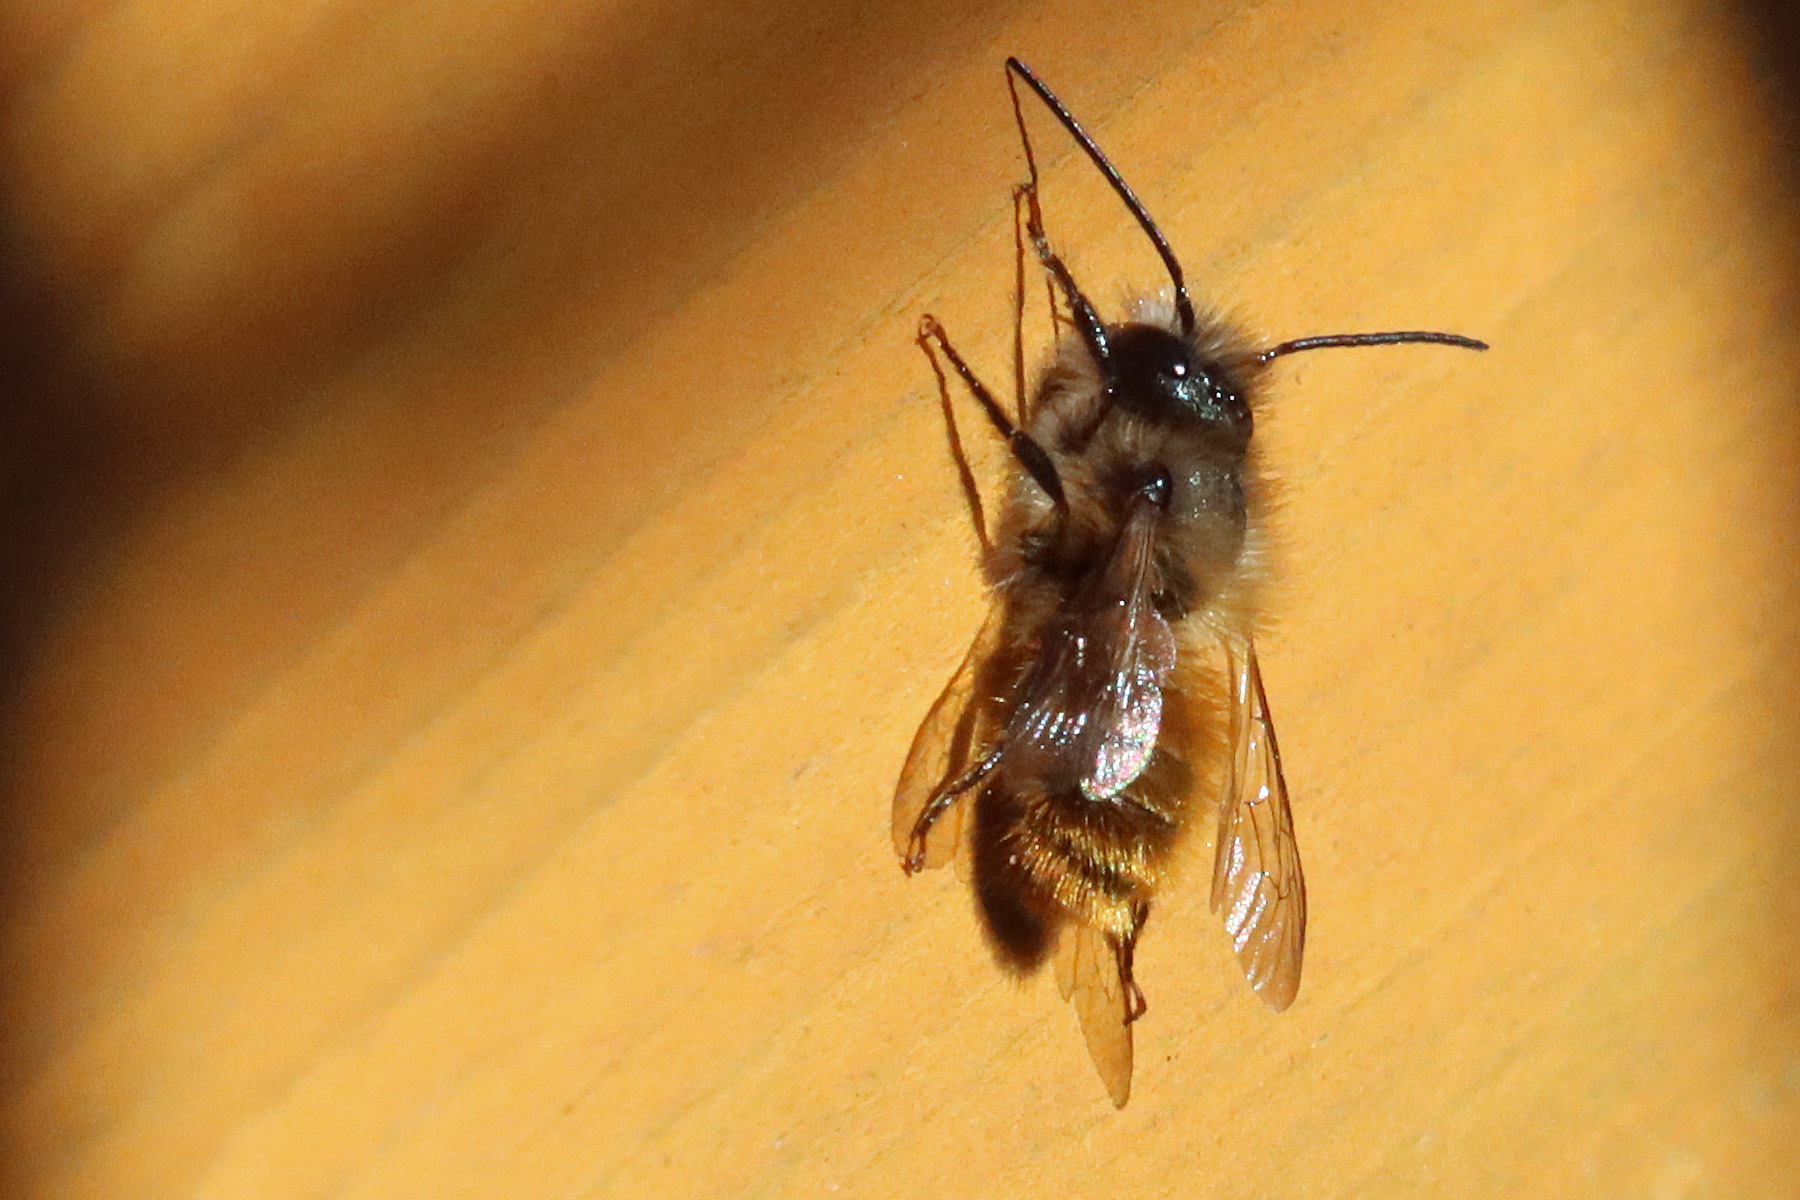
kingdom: Animalia
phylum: Arthropoda
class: Insecta
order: Hymenoptera
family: Megachilidae
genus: Osmia
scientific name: Osmia bicornis
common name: Red mason bee
